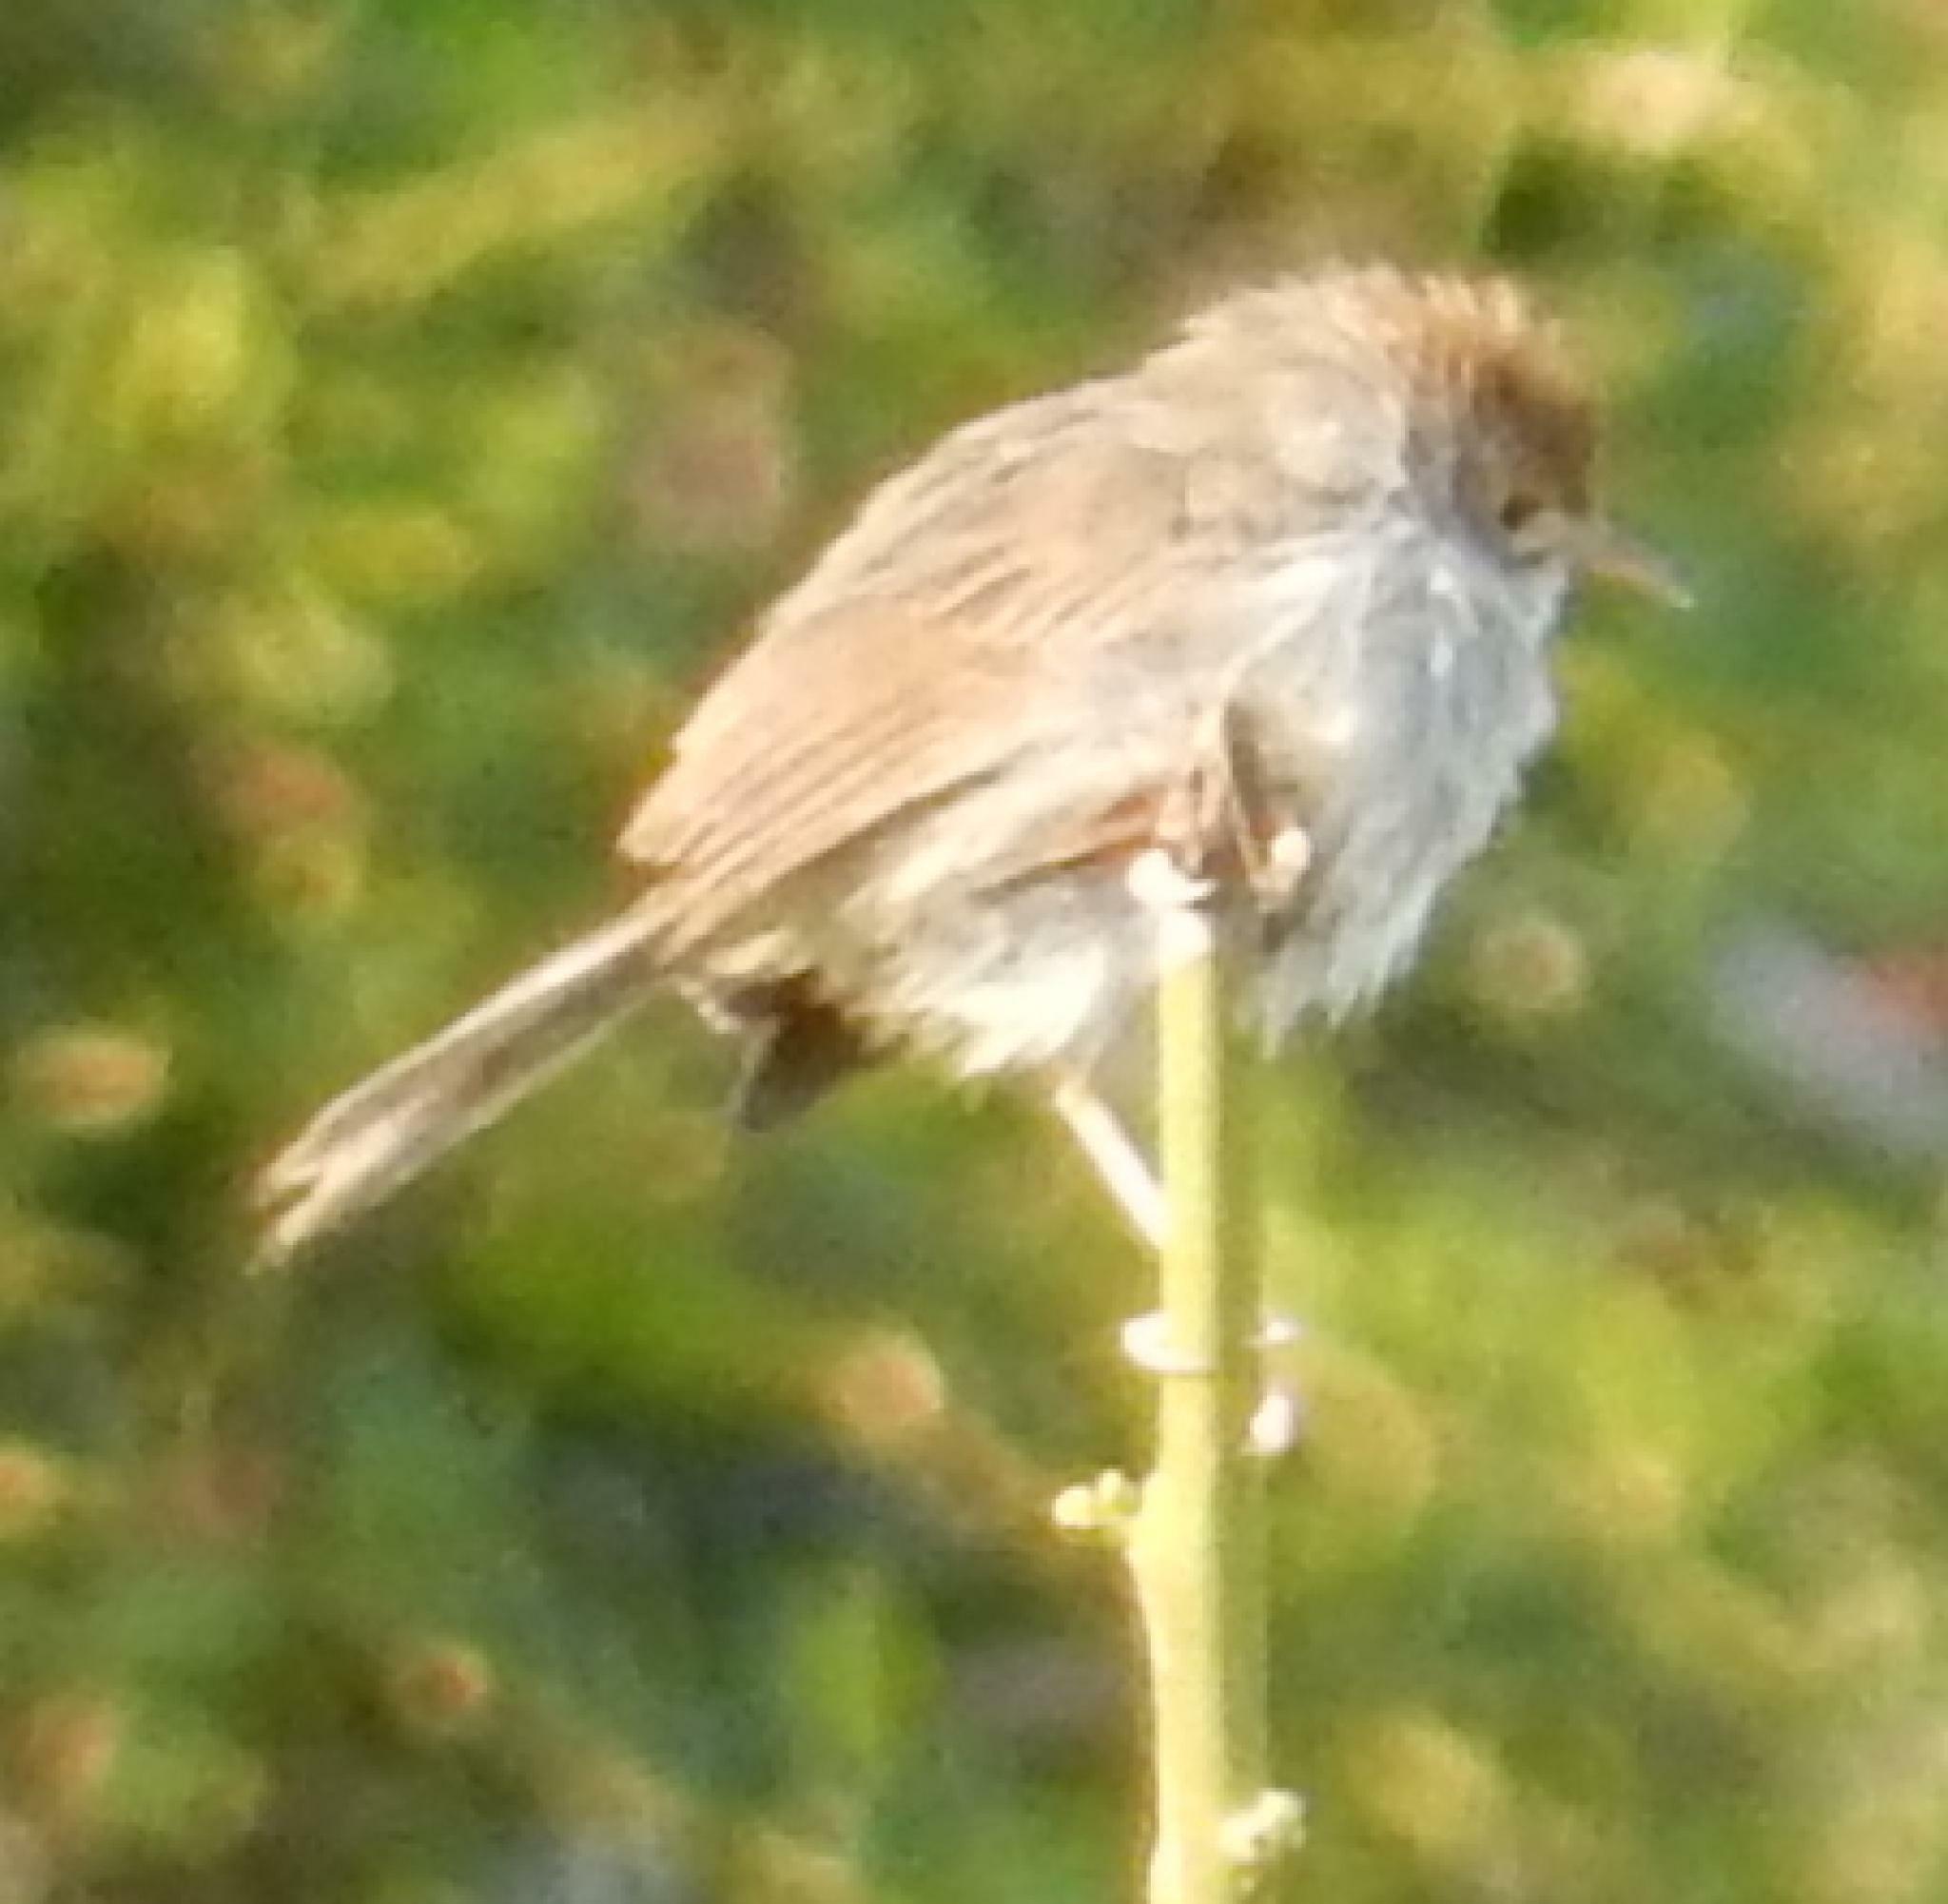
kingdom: Animalia
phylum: Chordata
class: Aves
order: Passeriformes
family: Cisticolidae
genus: Cisticola
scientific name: Cisticola fulvicapilla
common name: Neddicky
